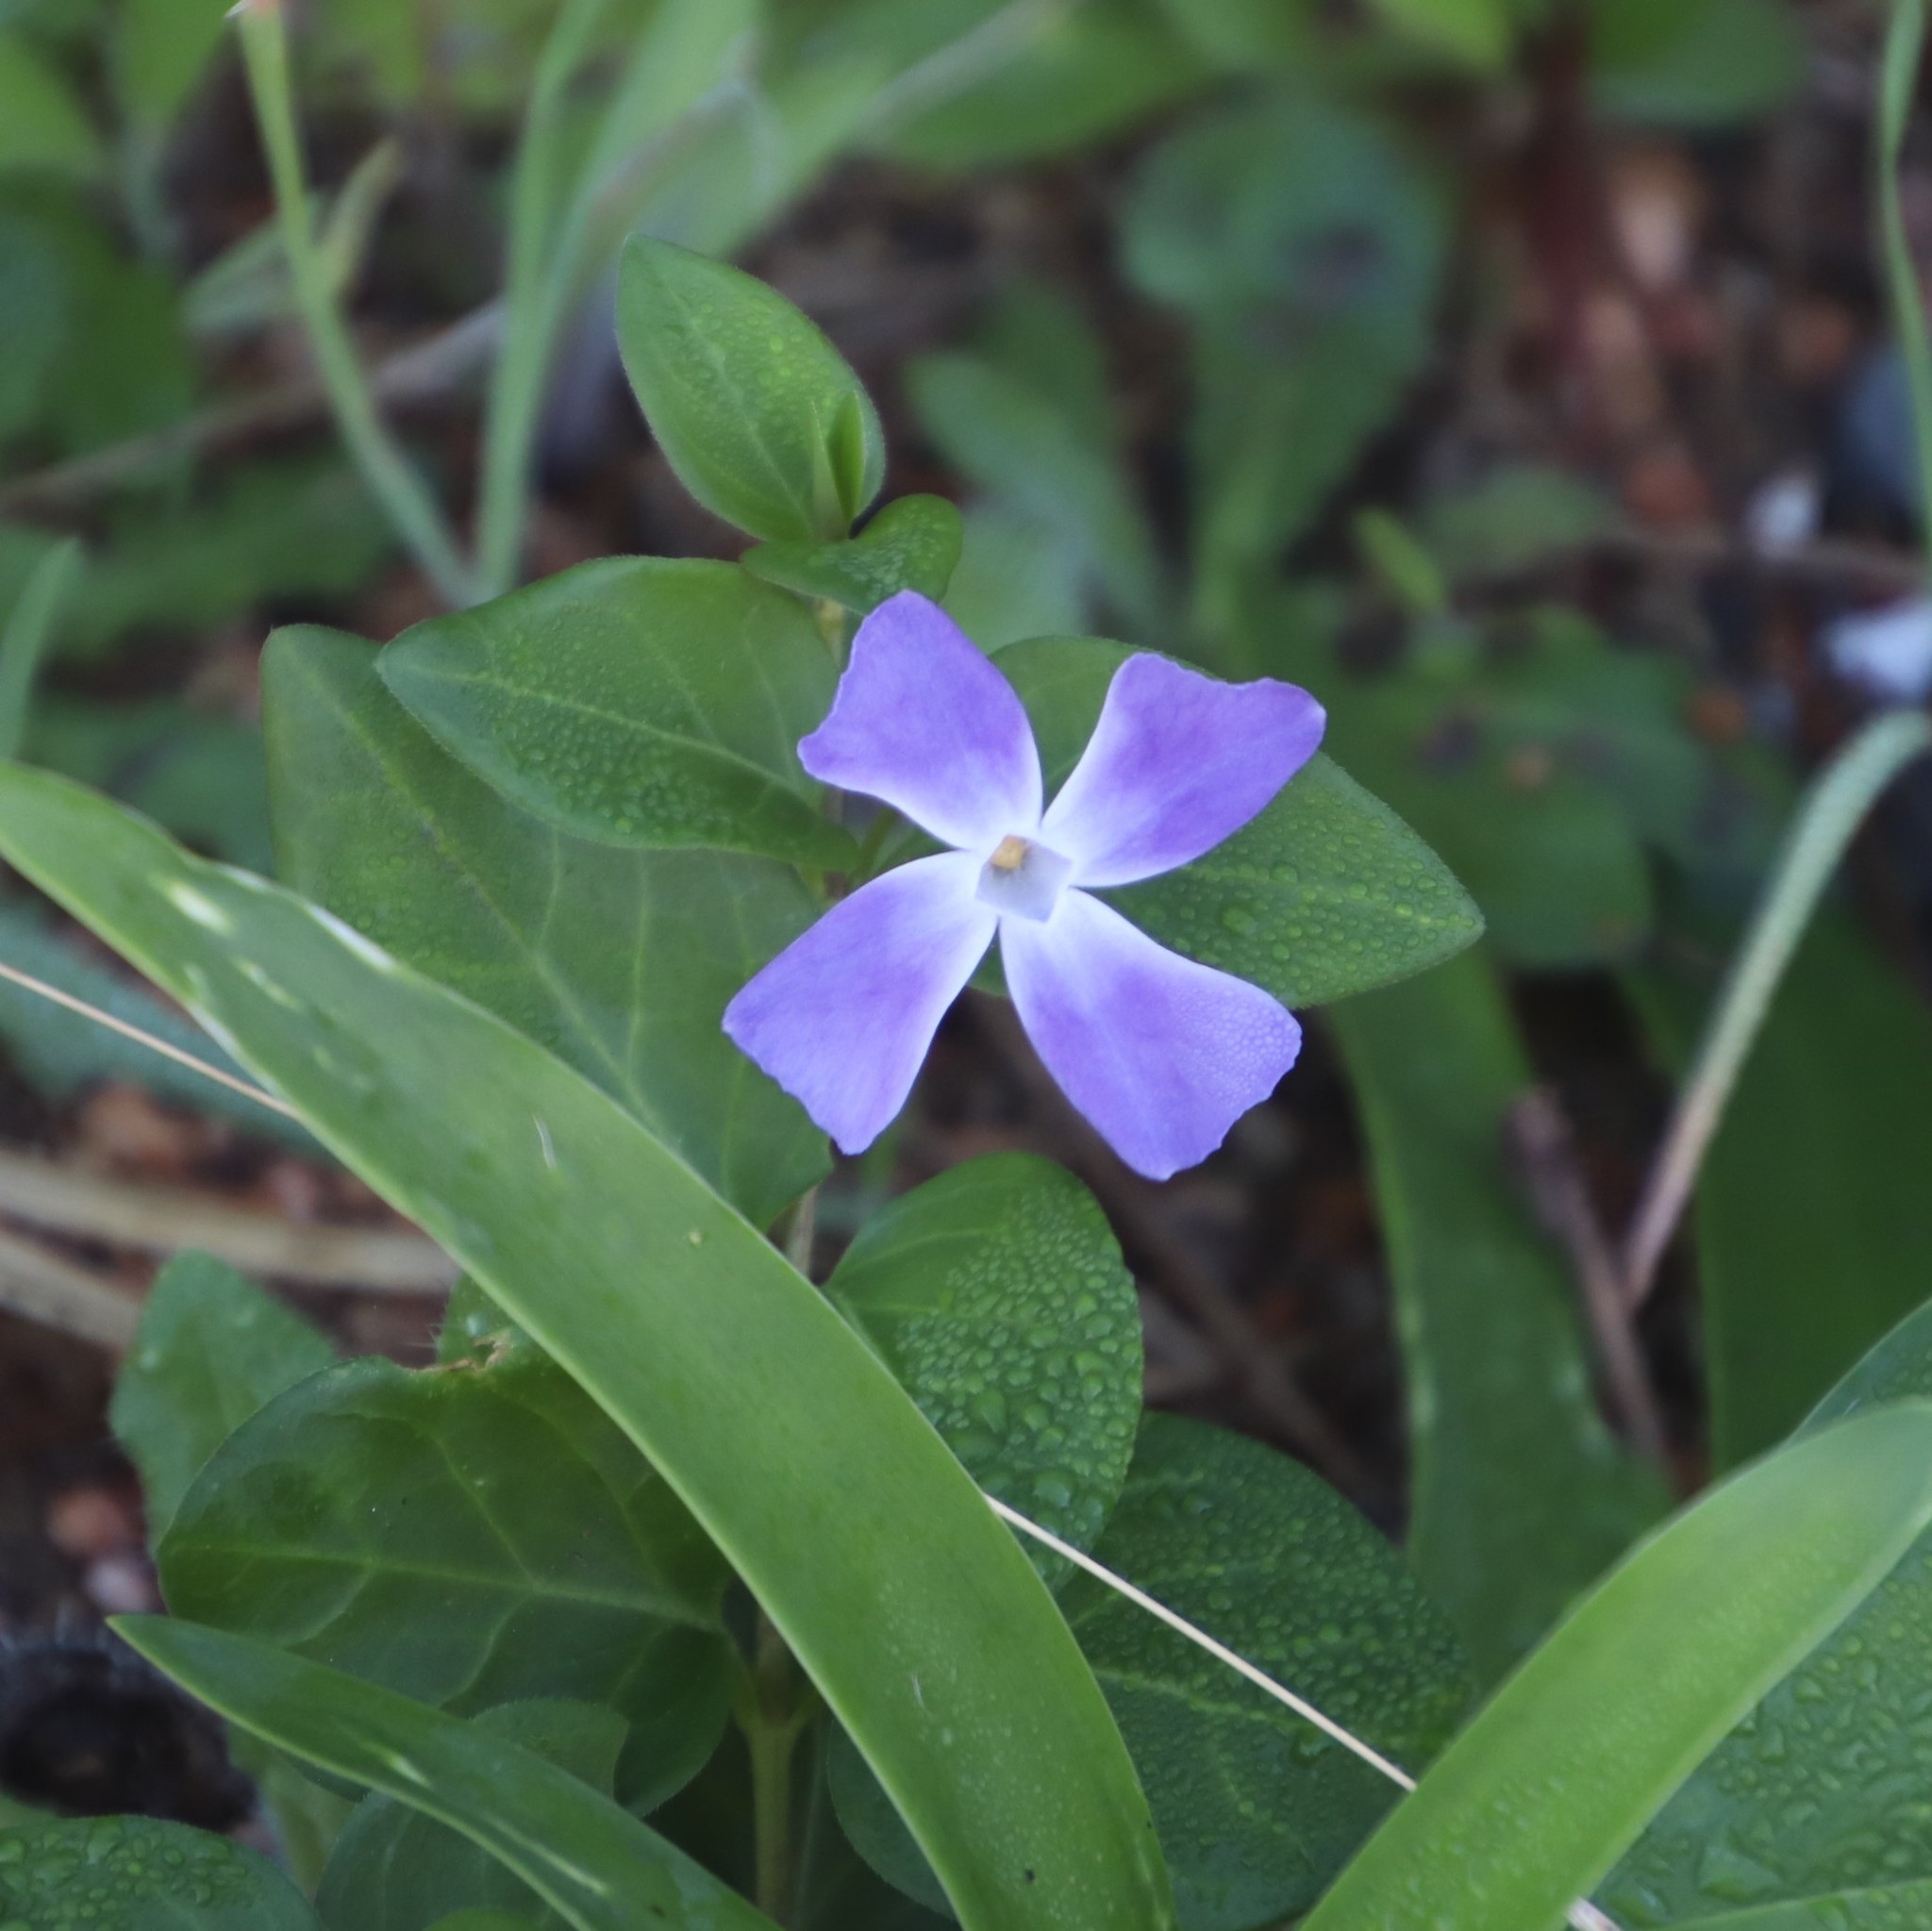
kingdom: Plantae
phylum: Tracheophyta
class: Magnoliopsida
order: Gentianales
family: Apocynaceae
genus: Vinca
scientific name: Vinca major
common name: Greater periwinkle
